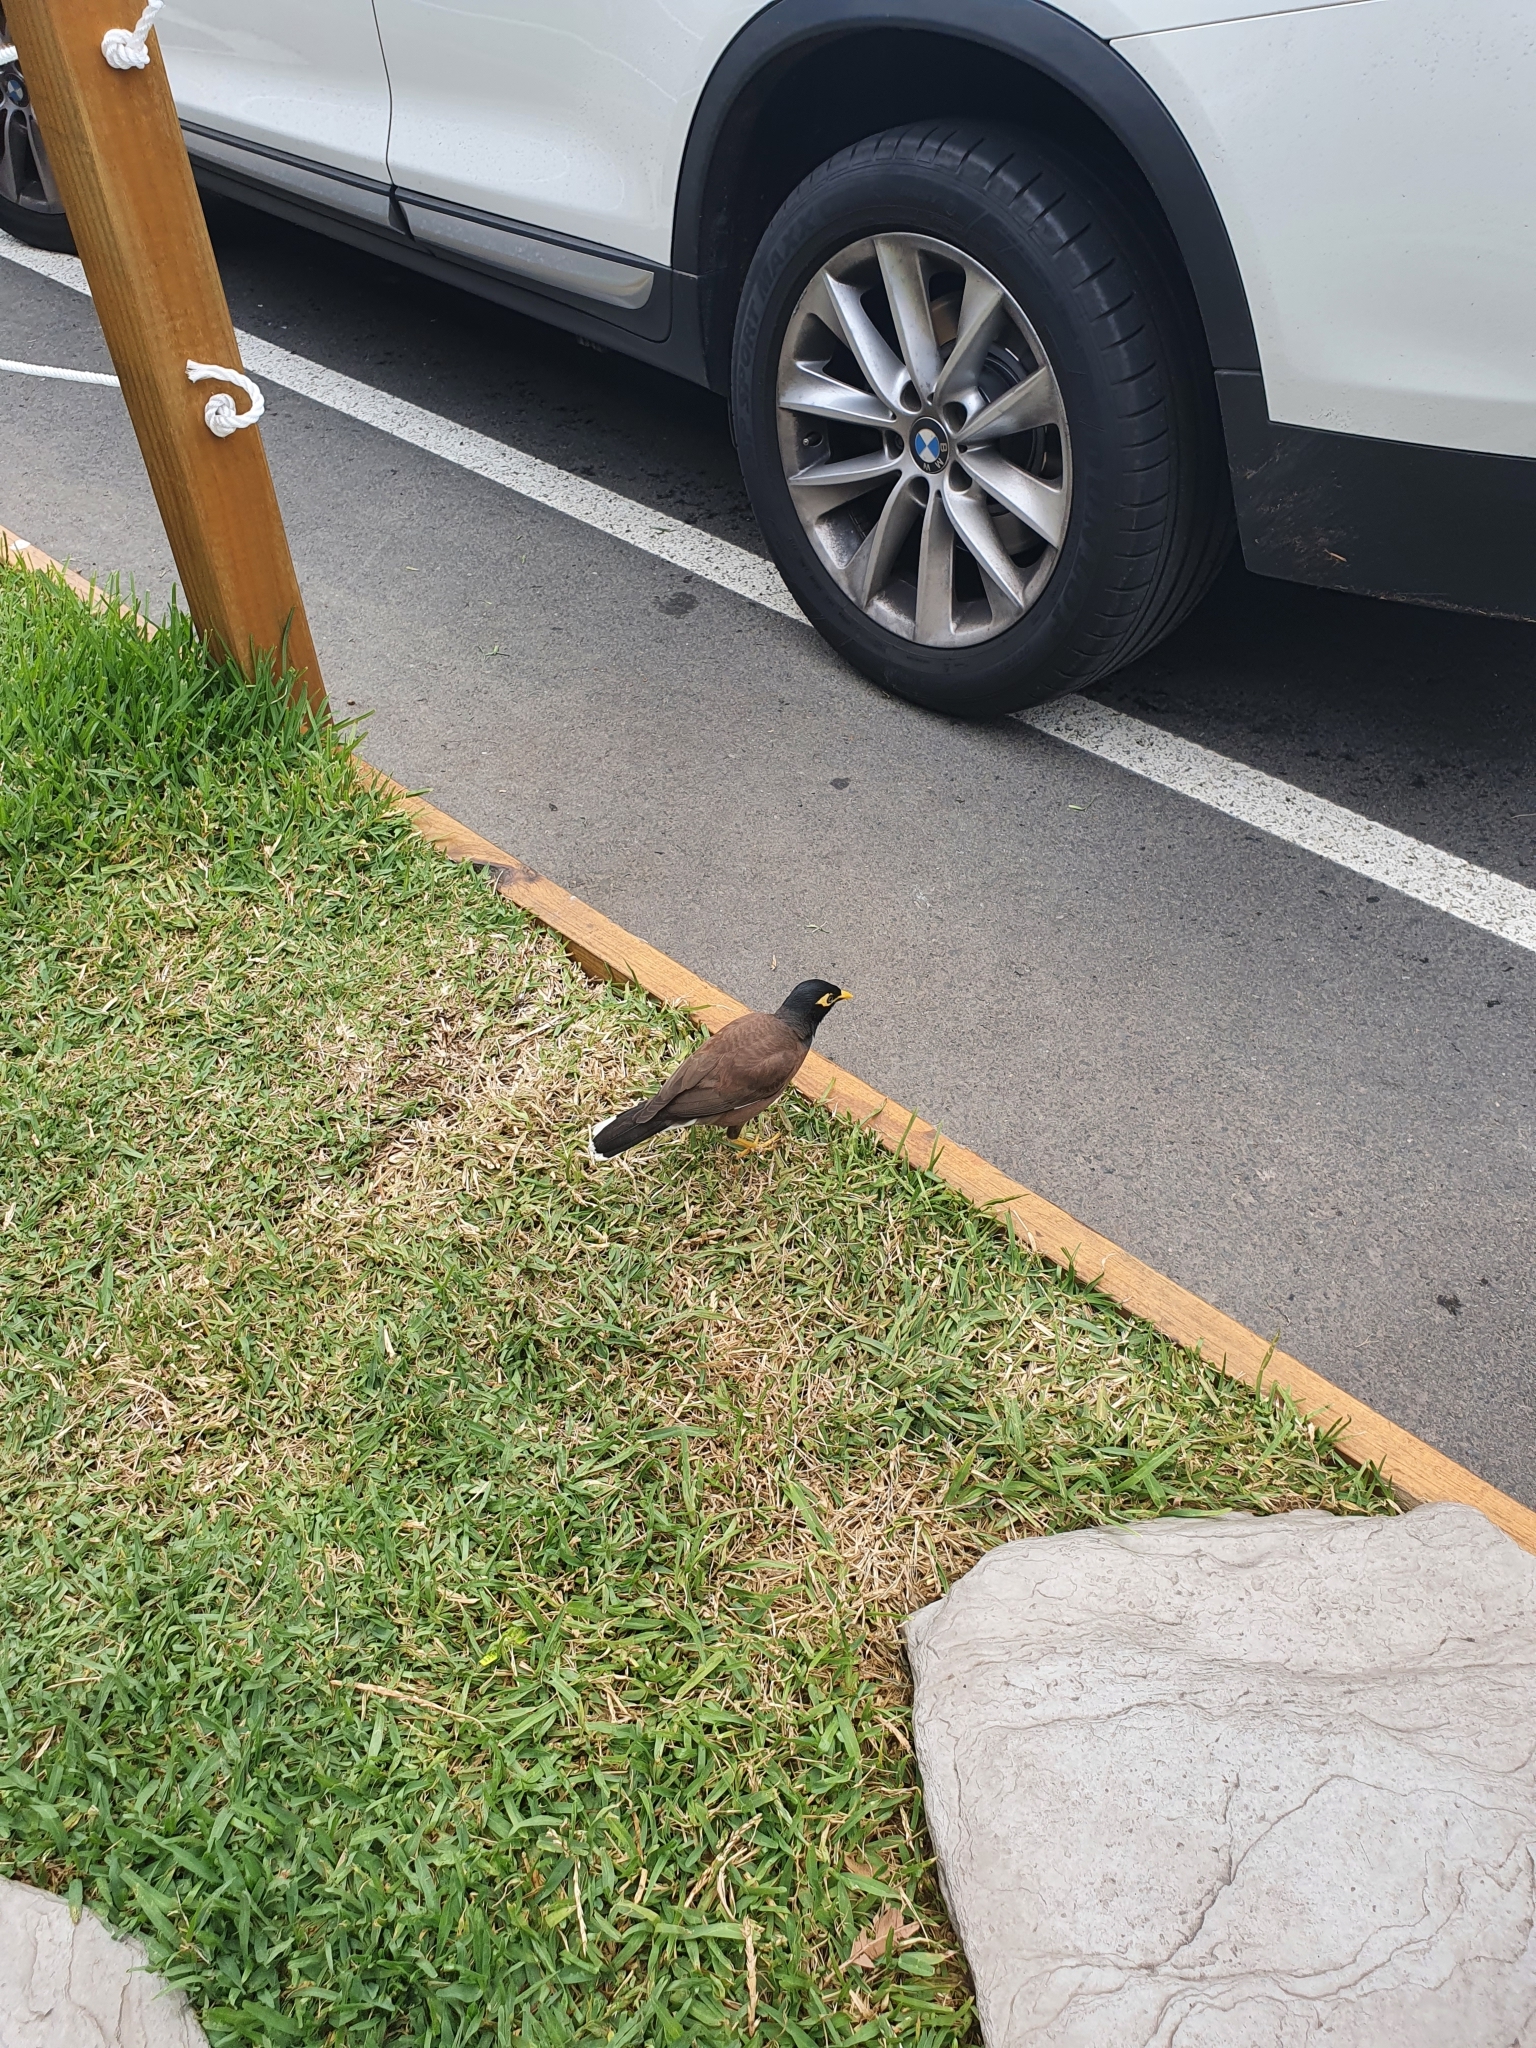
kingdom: Animalia
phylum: Chordata
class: Aves
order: Passeriformes
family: Sturnidae
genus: Acridotheres
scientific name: Acridotheres tristis
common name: Common myna
